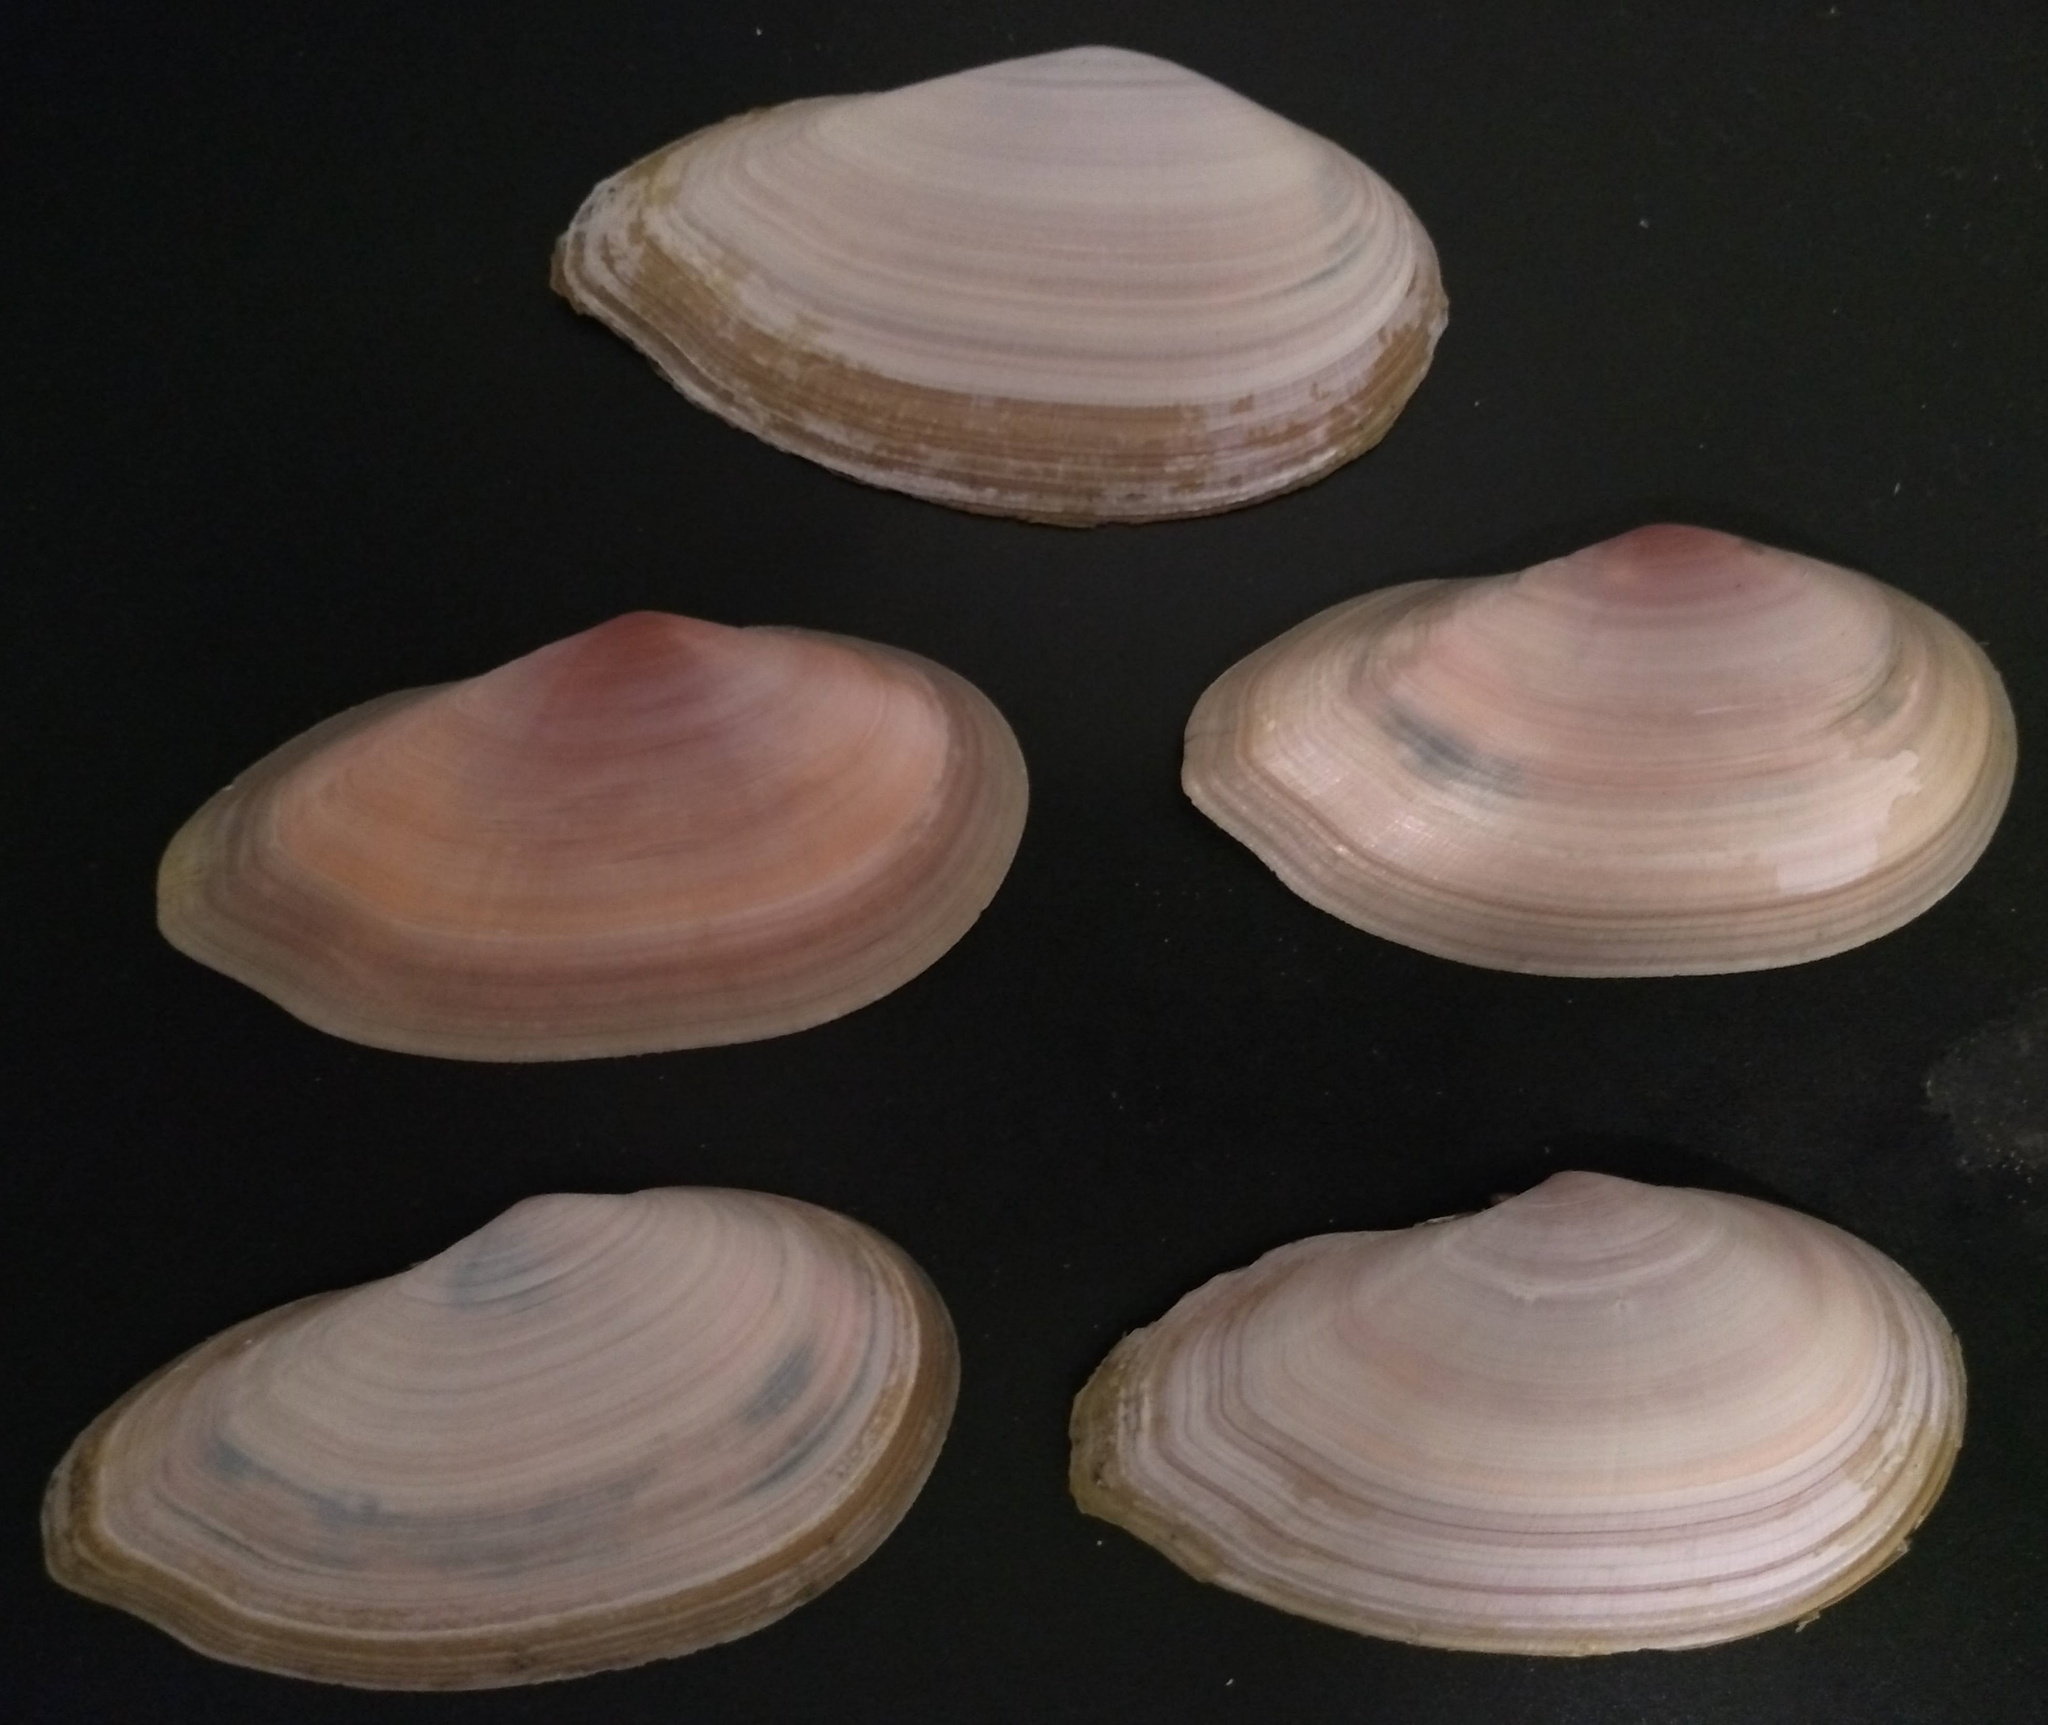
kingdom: Animalia
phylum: Mollusca
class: Bivalvia
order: Cardiida
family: Psammobiidae
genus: Psammotella
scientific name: Psammotella cruenta
